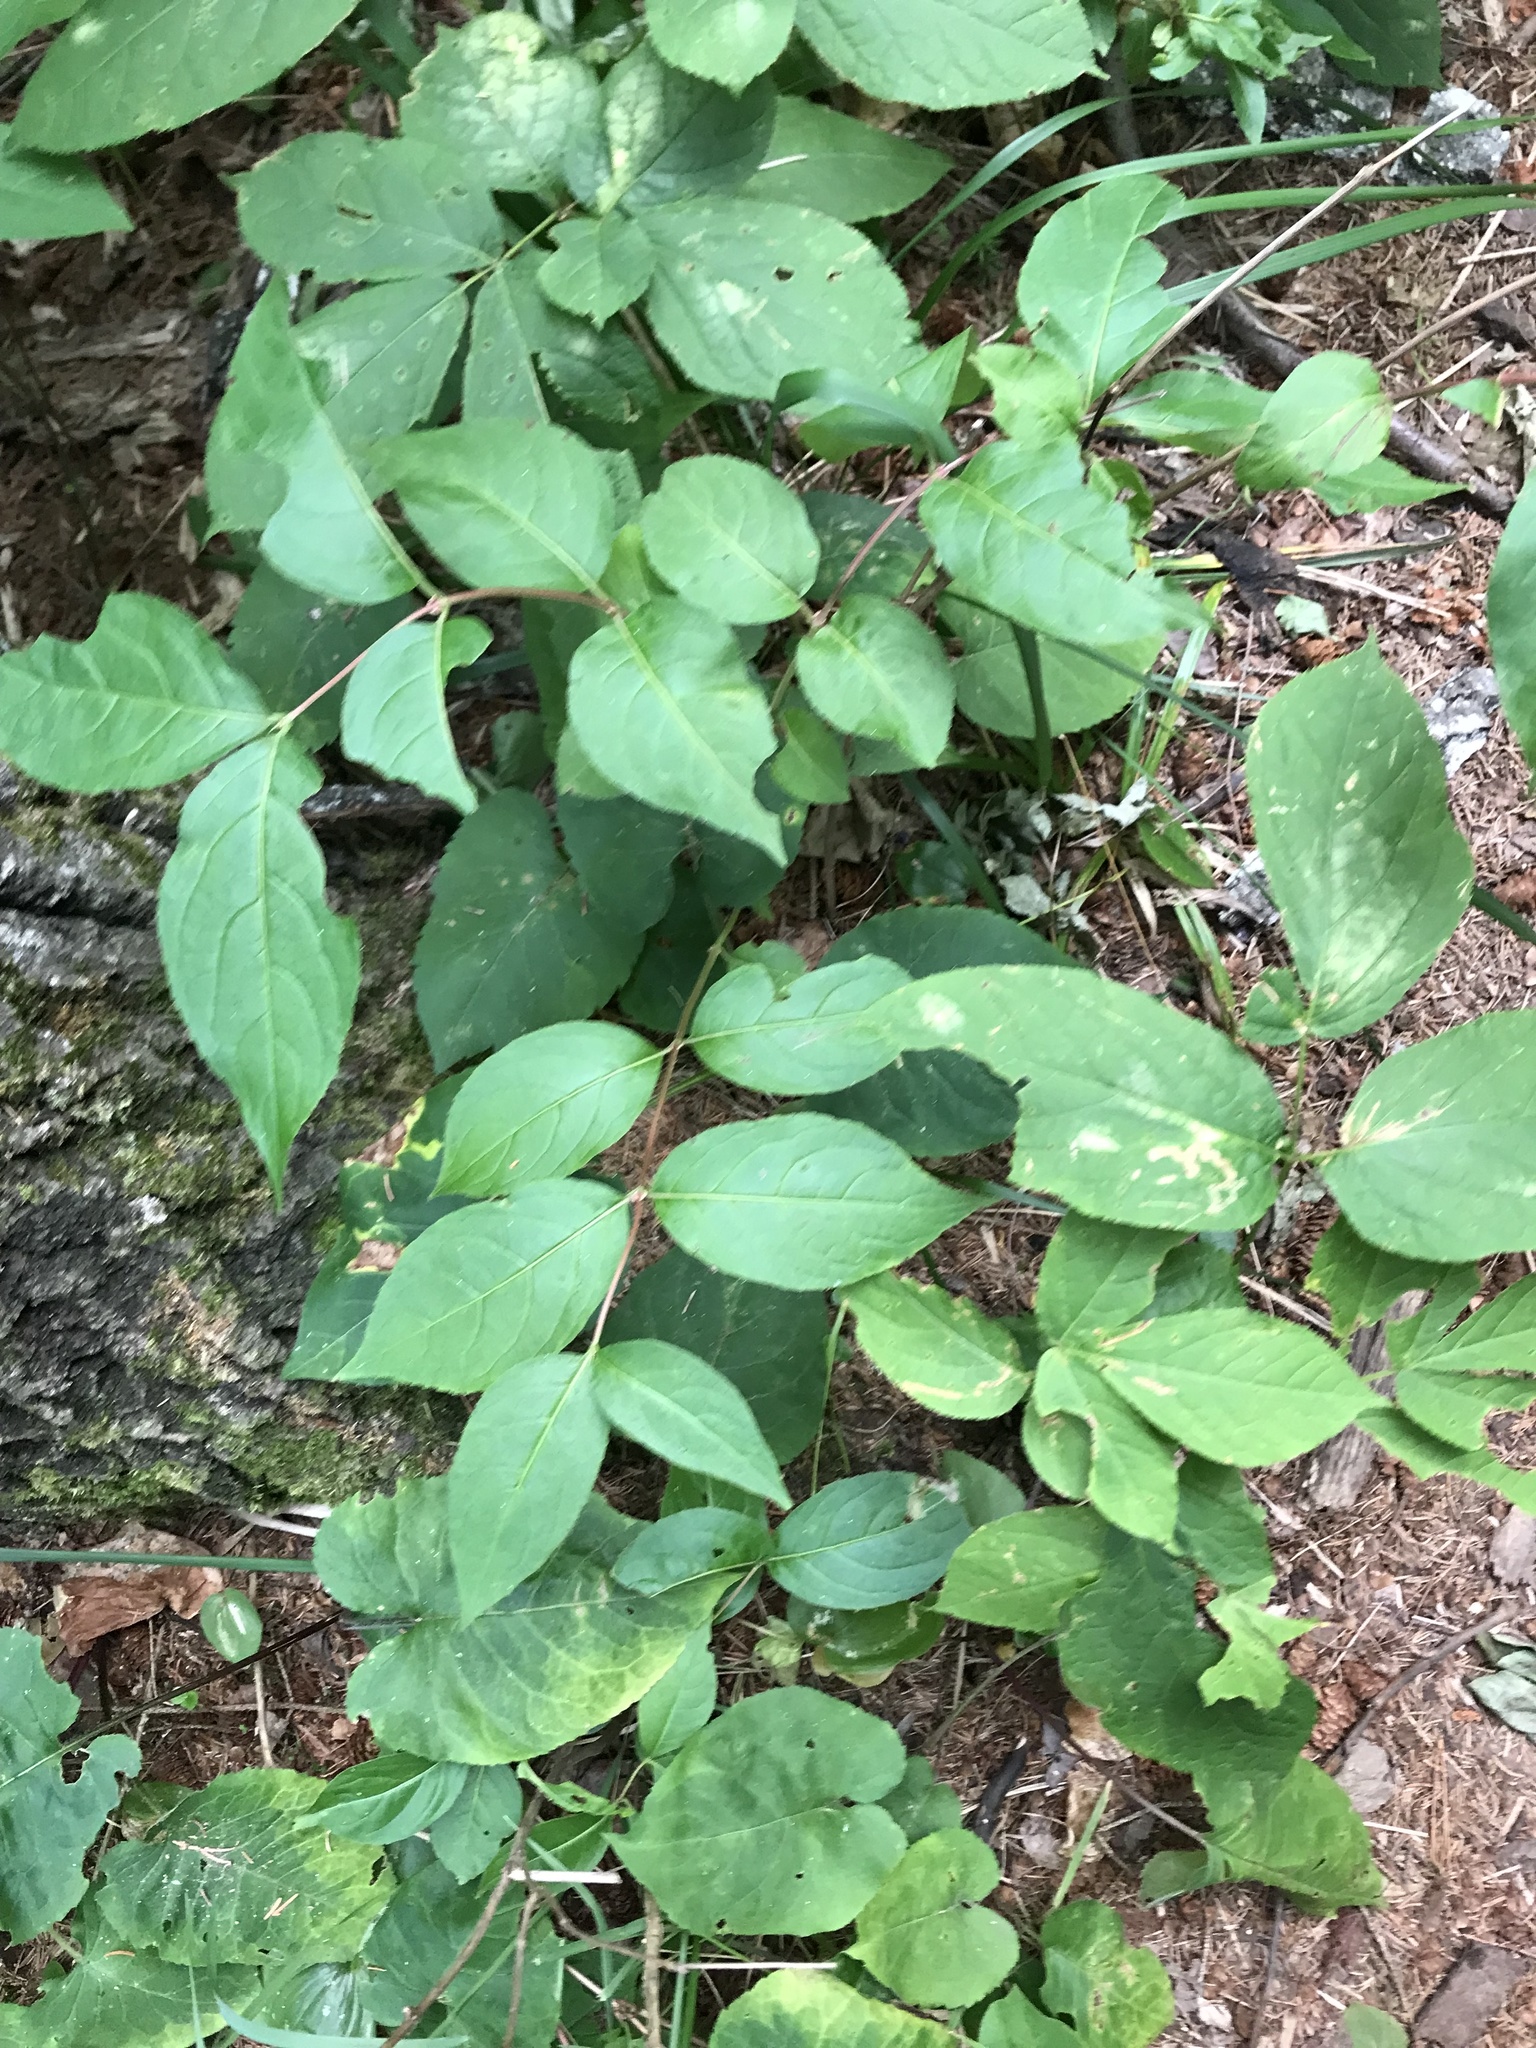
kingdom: Plantae
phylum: Tracheophyta
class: Magnoliopsida
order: Dipsacales
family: Caprifoliaceae
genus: Diervilla
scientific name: Diervilla lonicera
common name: Bush-honeysuckle
